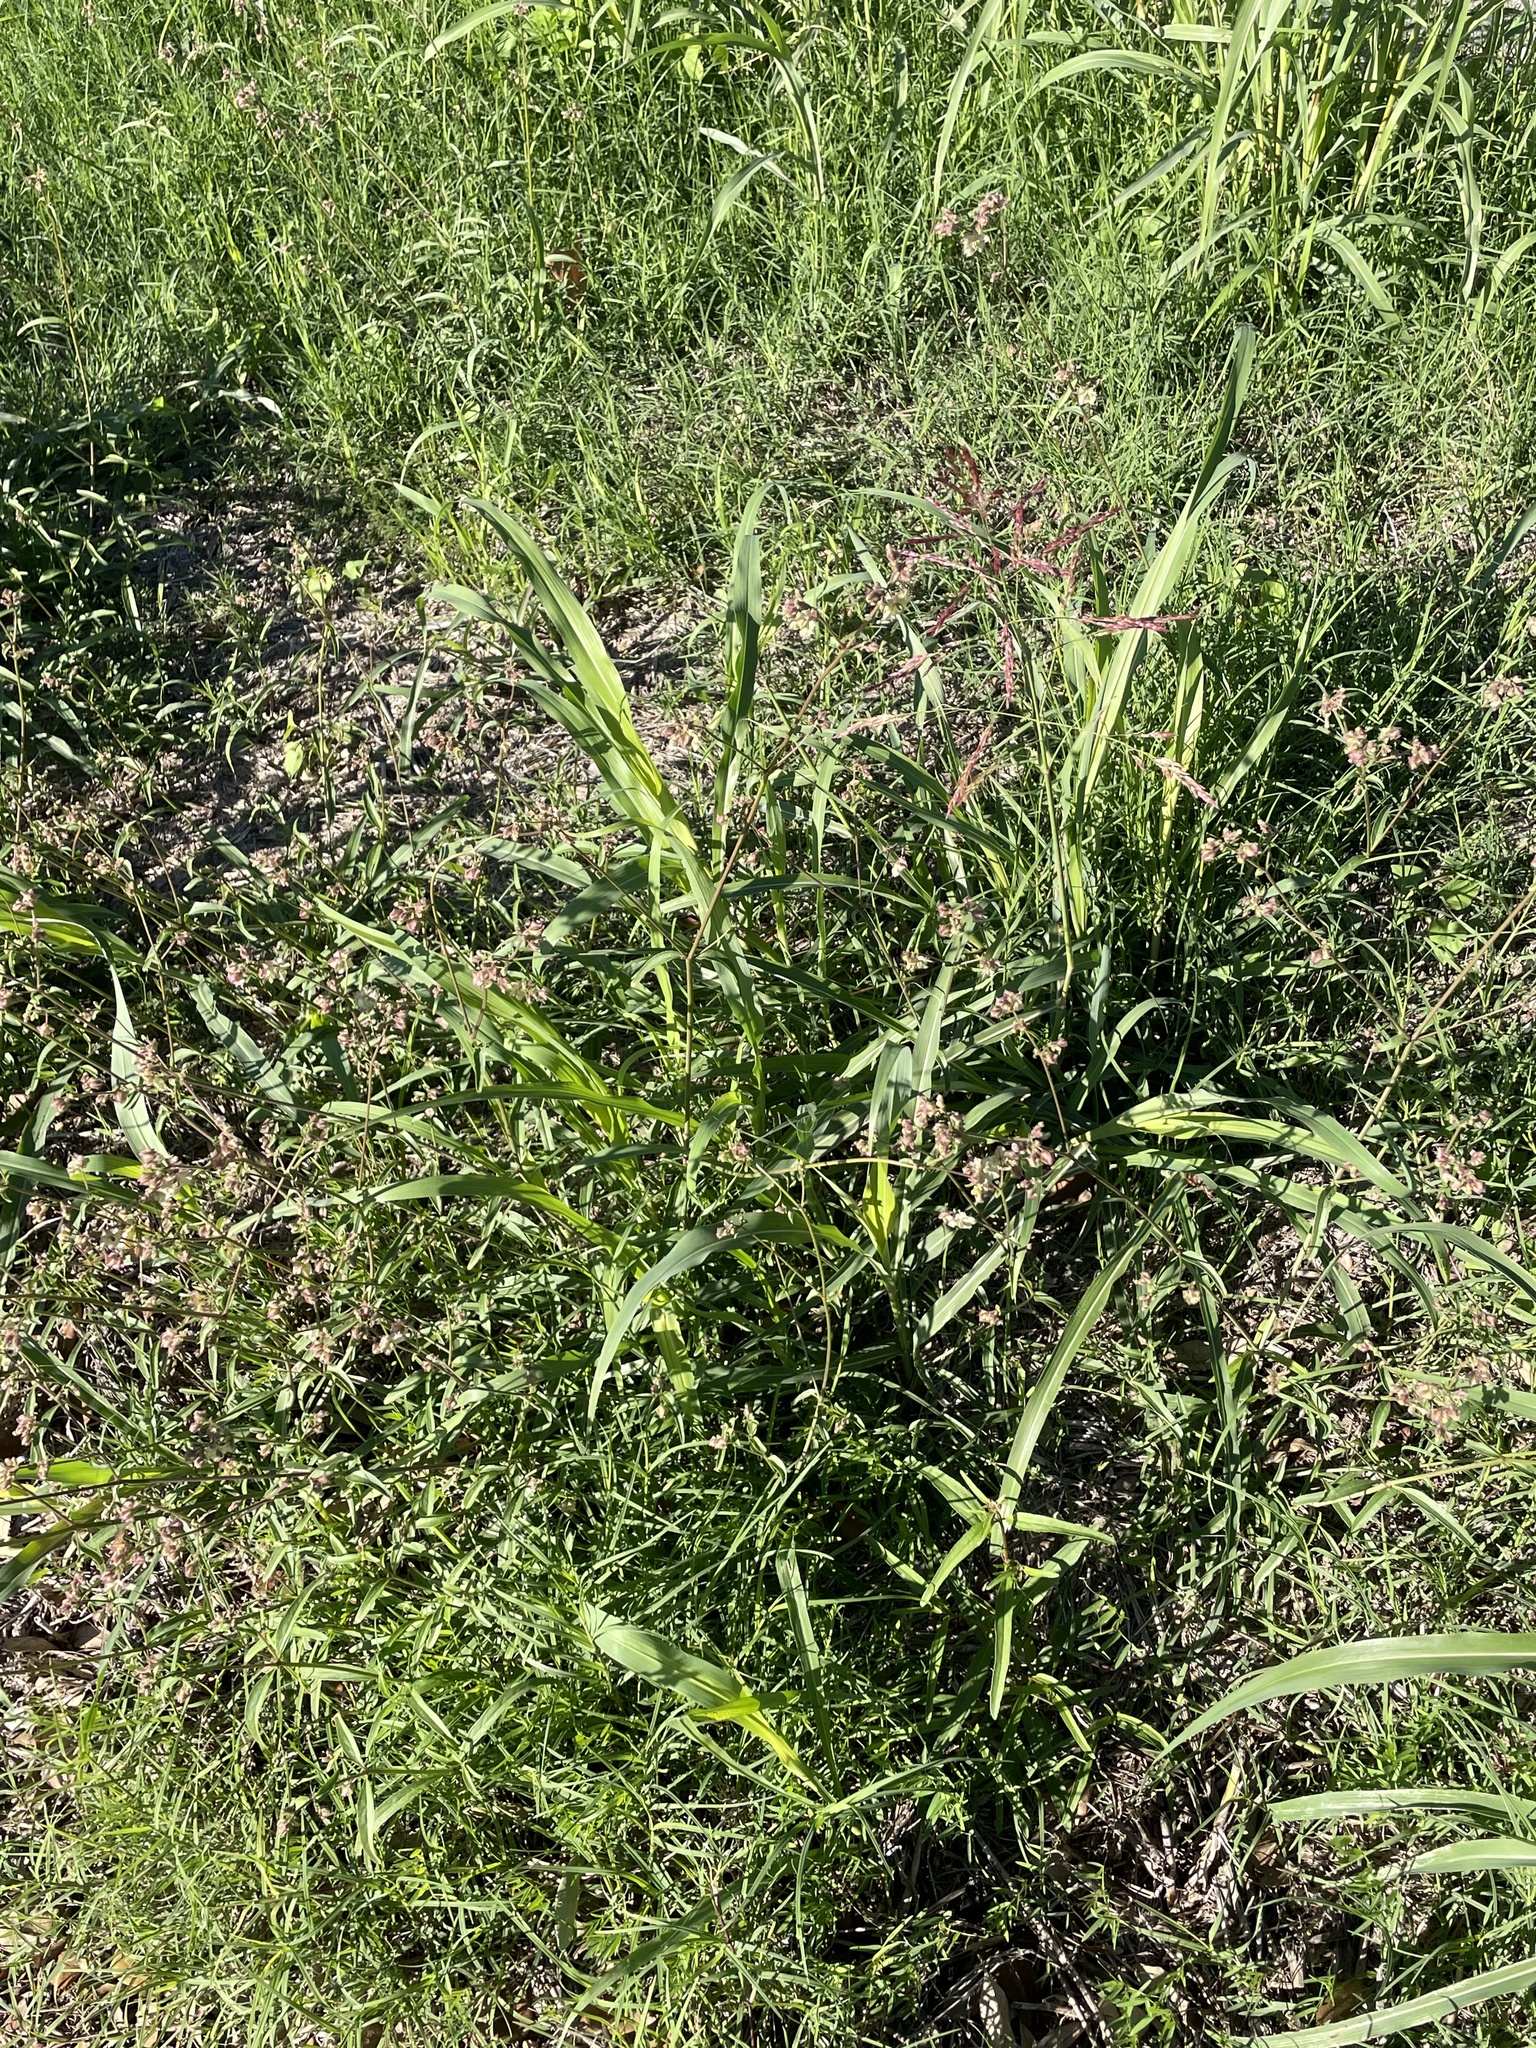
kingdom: Plantae
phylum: Tracheophyta
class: Magnoliopsida
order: Caryophyllales
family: Nyctaginaceae
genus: Mirabilis
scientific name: Mirabilis albida
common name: Hairy four-o'clock
